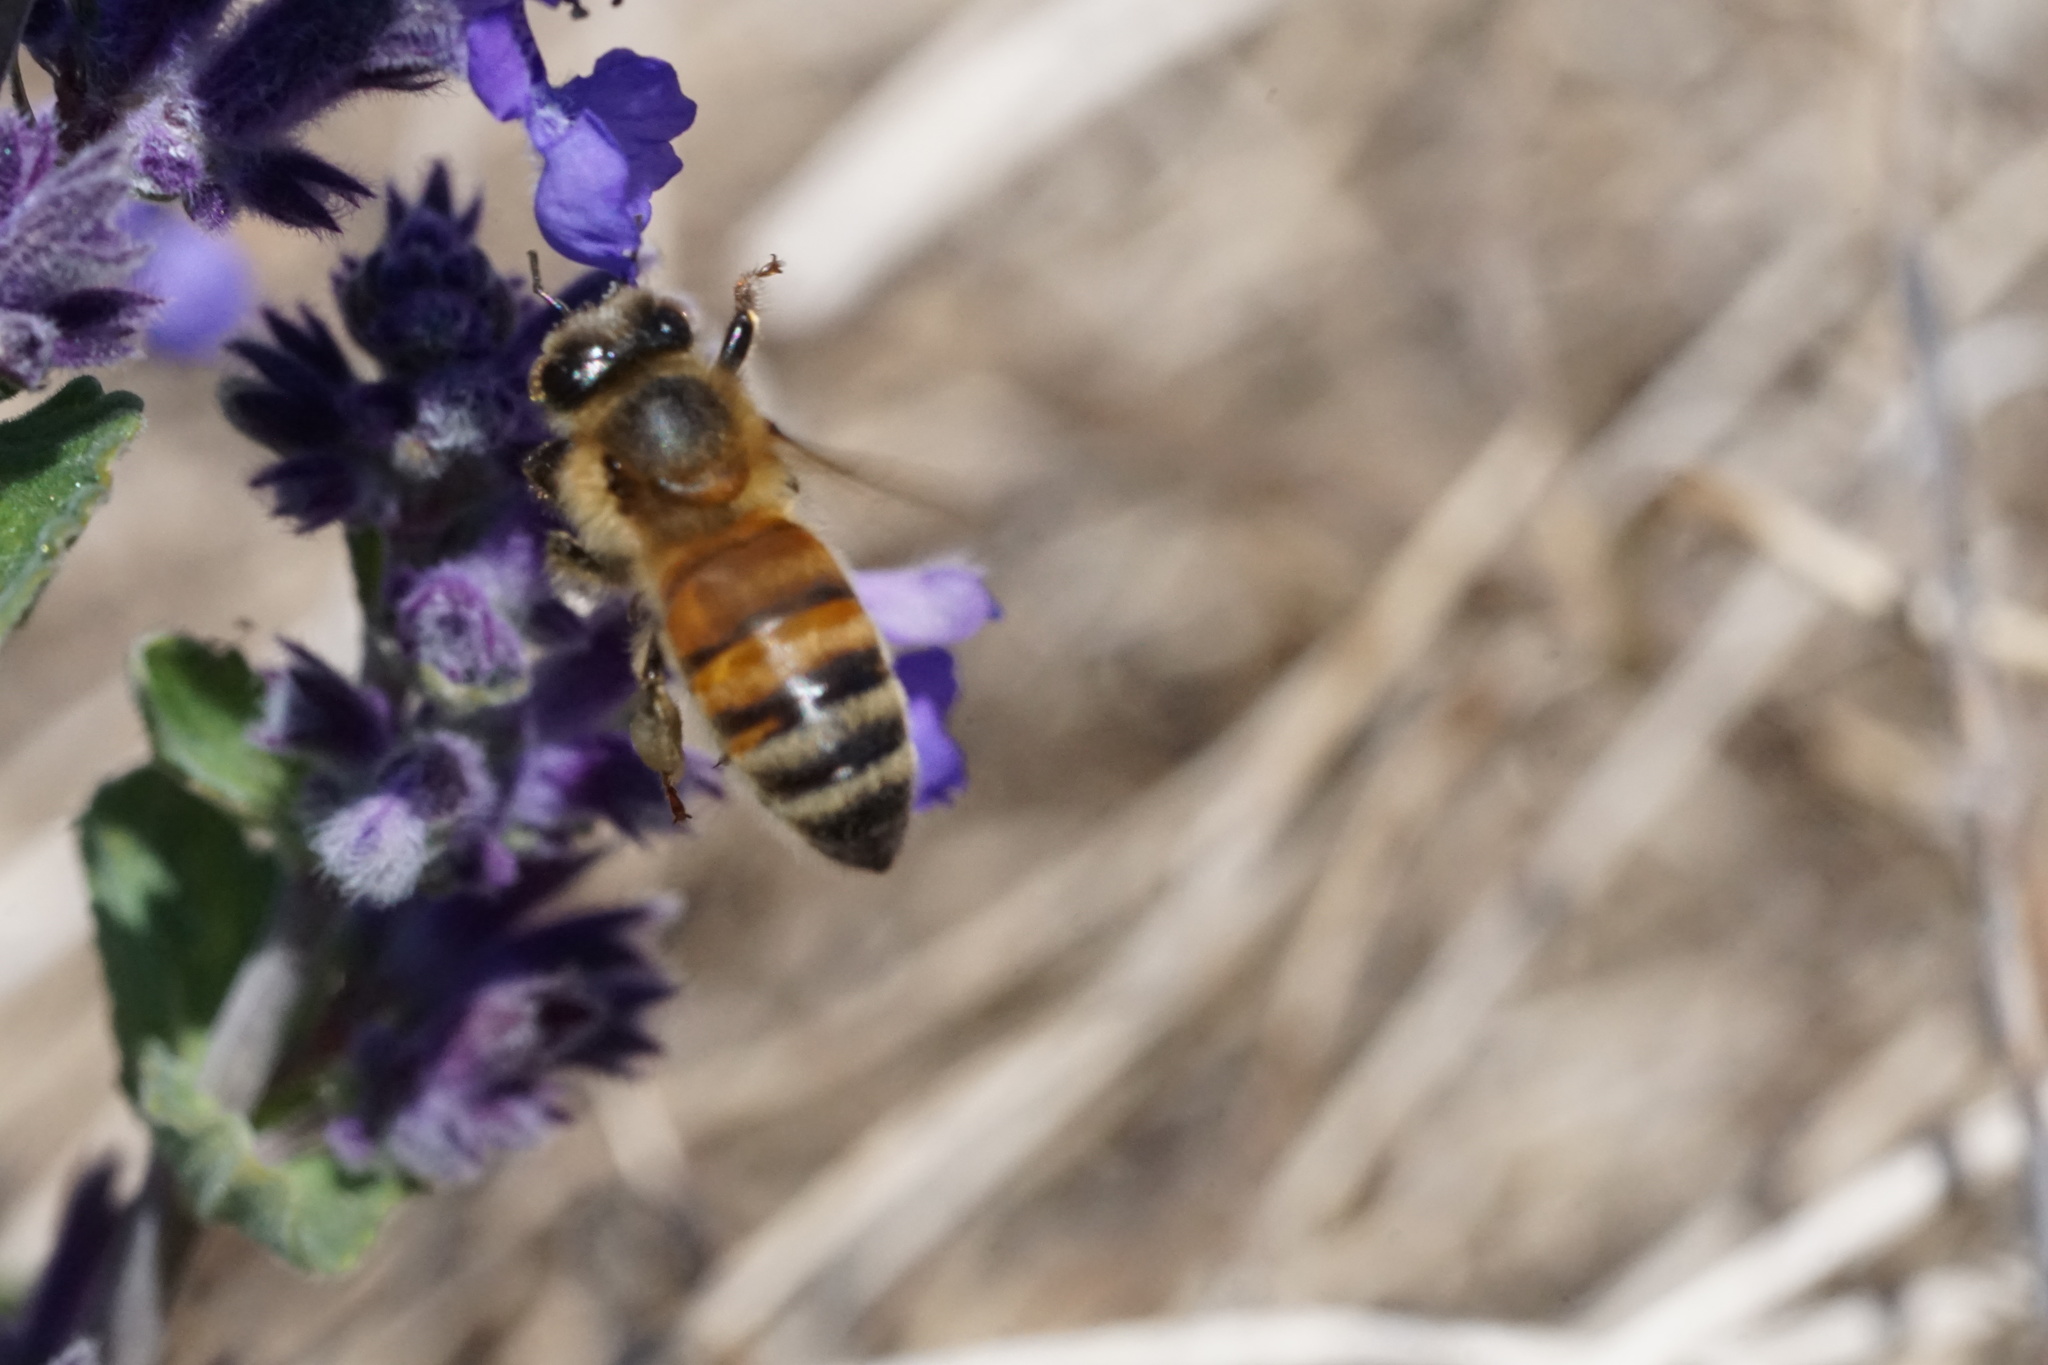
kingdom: Animalia
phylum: Arthropoda
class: Insecta
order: Hymenoptera
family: Apidae
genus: Apis
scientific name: Apis mellifera
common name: Honey bee
